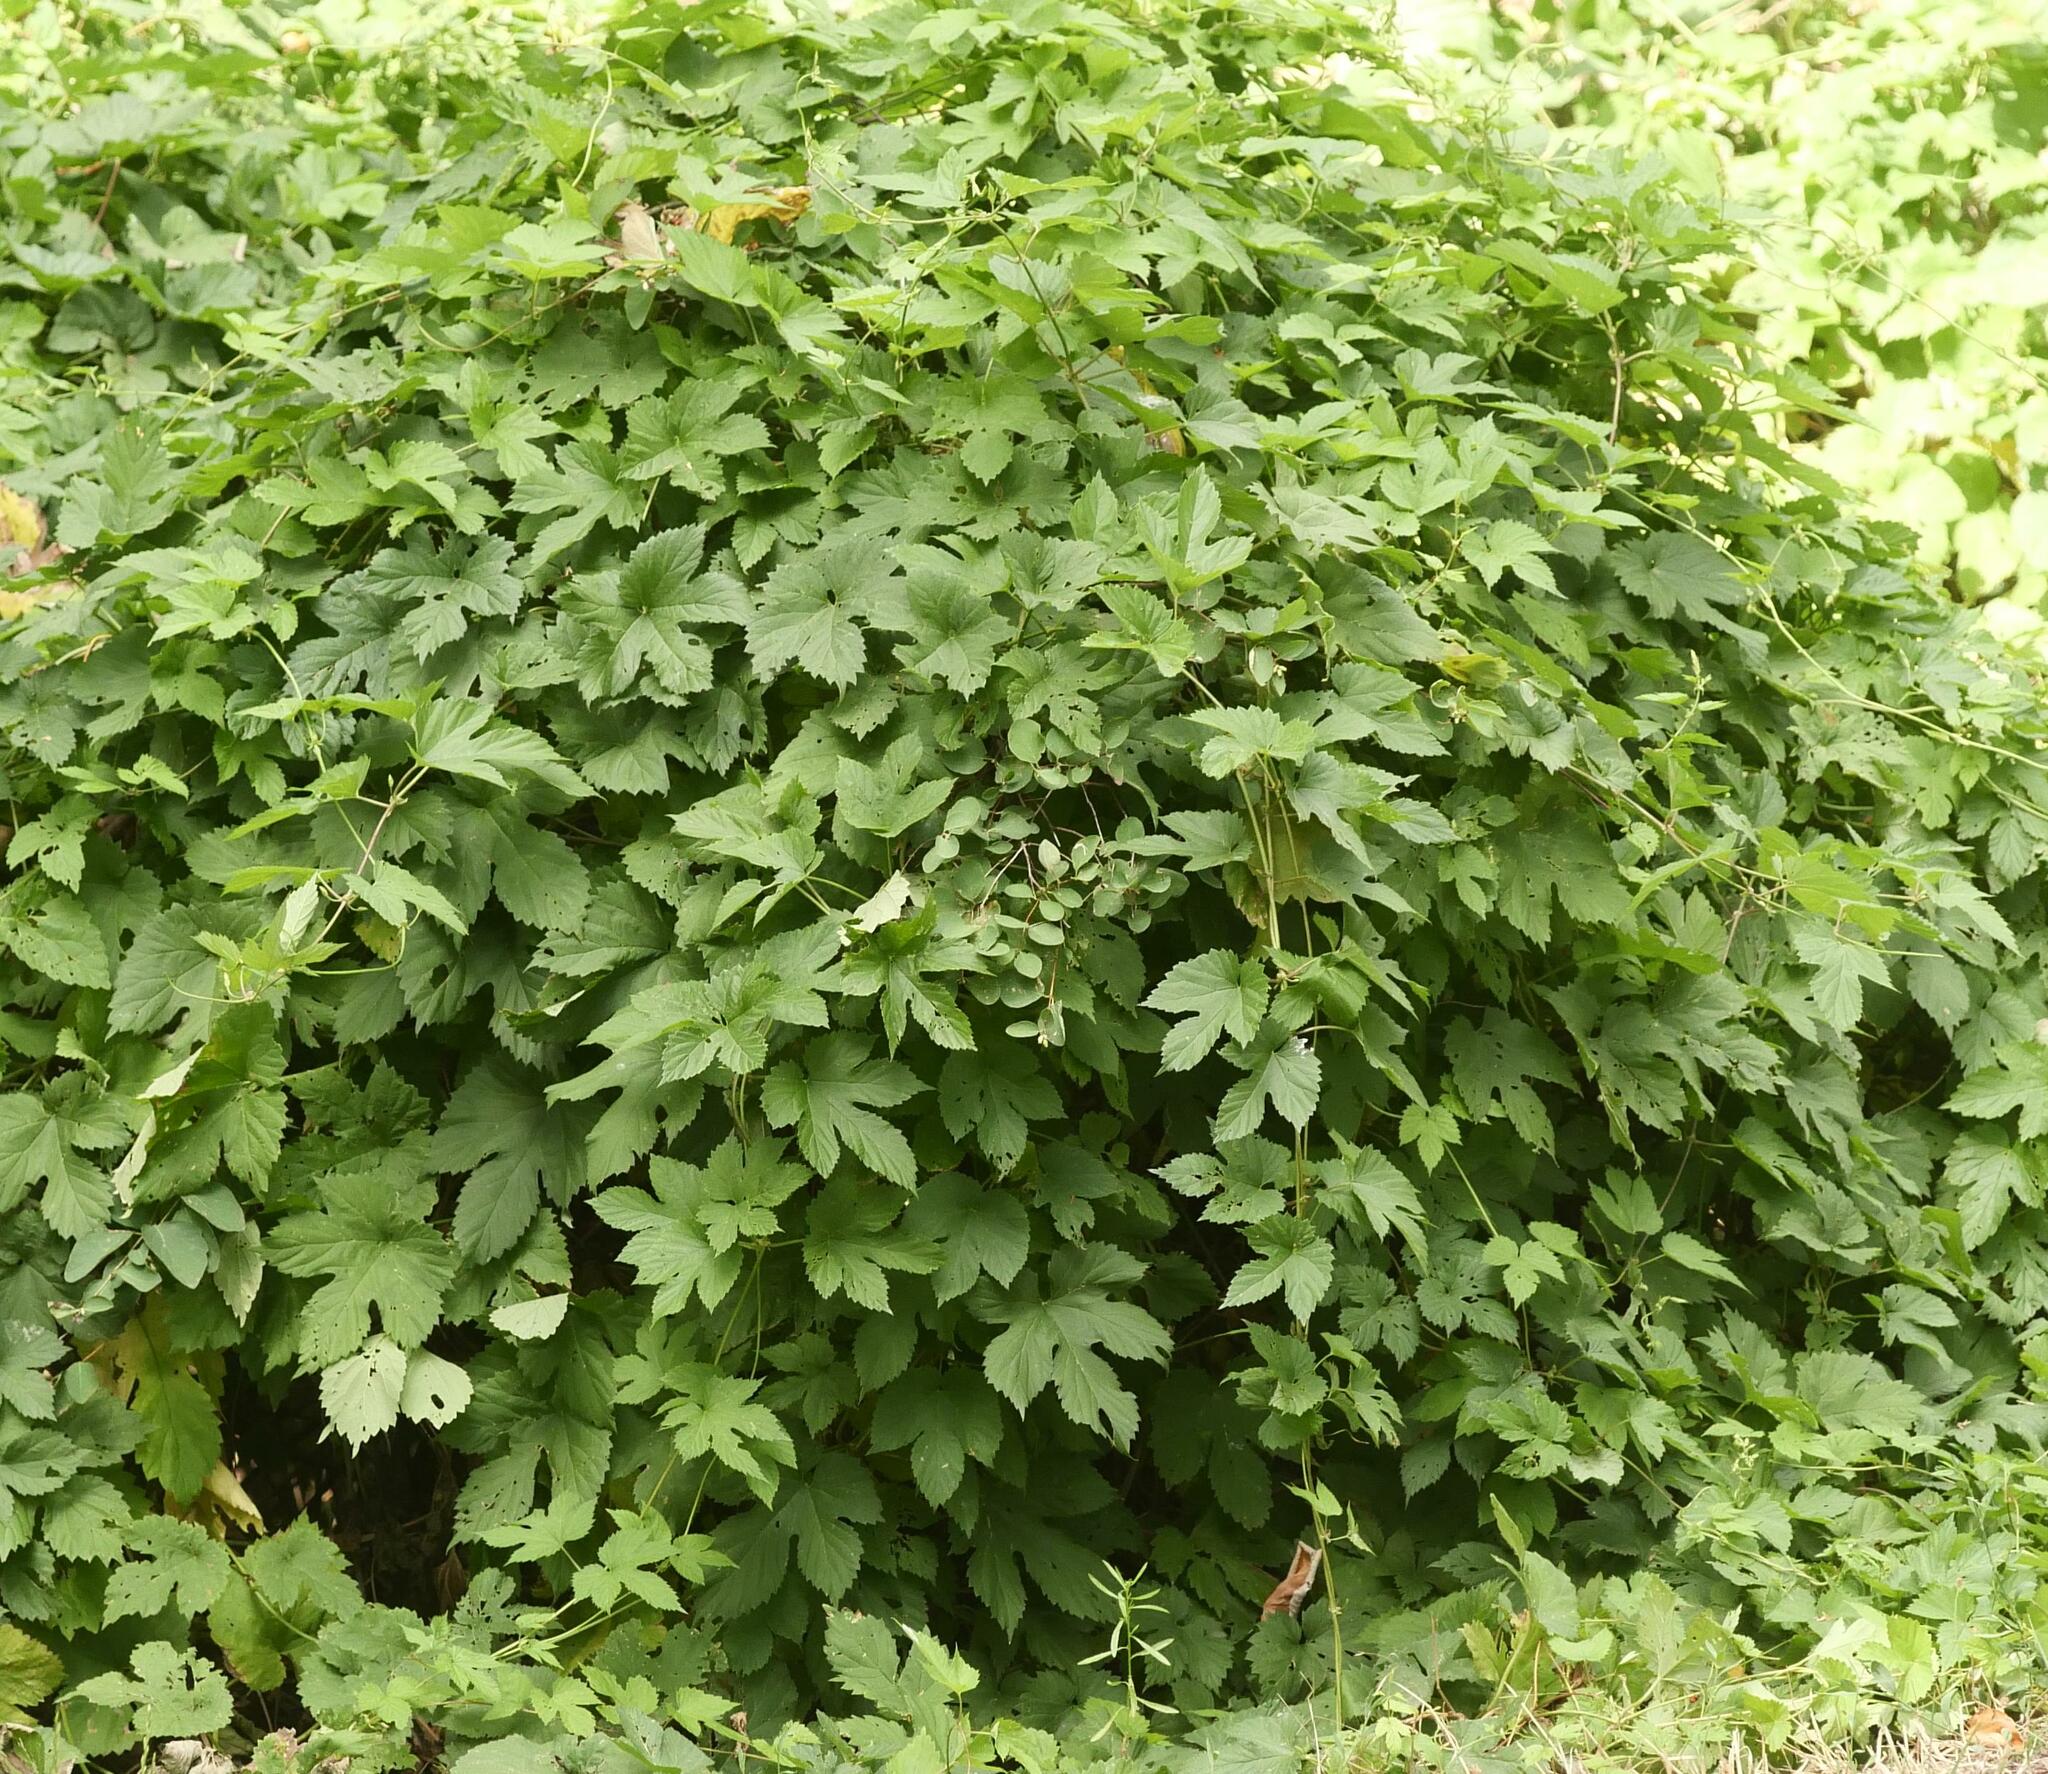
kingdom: Plantae
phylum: Tracheophyta
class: Magnoliopsida
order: Rosales
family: Cannabaceae
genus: Humulus
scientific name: Humulus lupulus
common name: Hop
